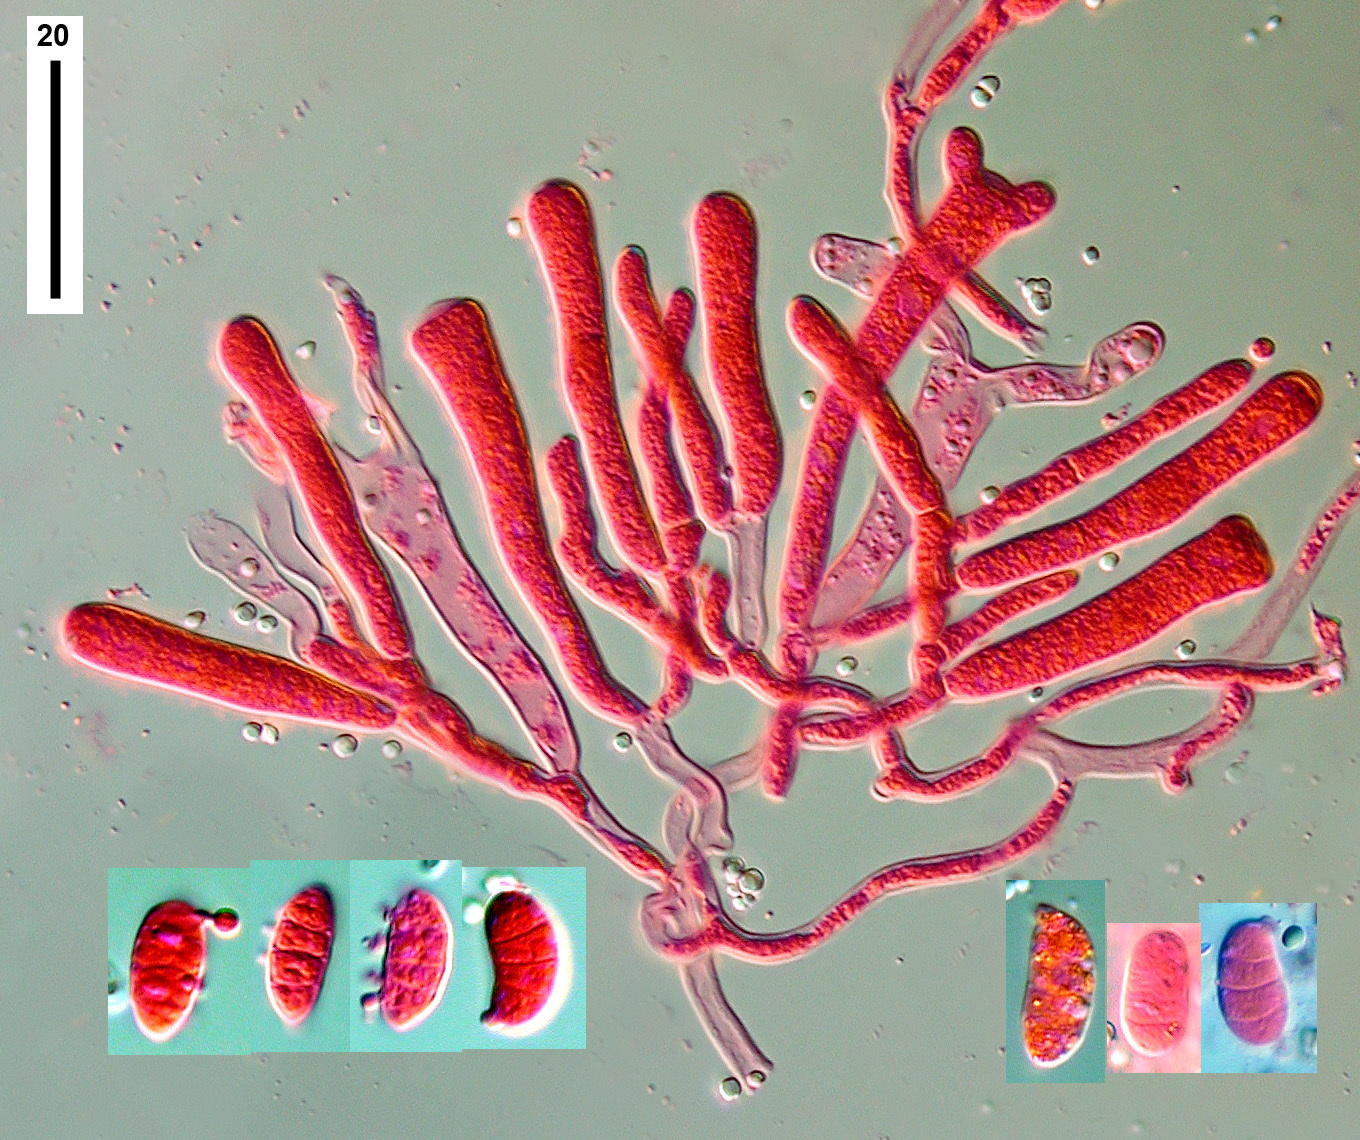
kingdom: Fungi
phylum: Basidiomycota
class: Dacrymycetes
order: Dacrymycetales
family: Dacrymycetaceae
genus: Dacrymyces
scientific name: Dacrymyces lacrymalis
